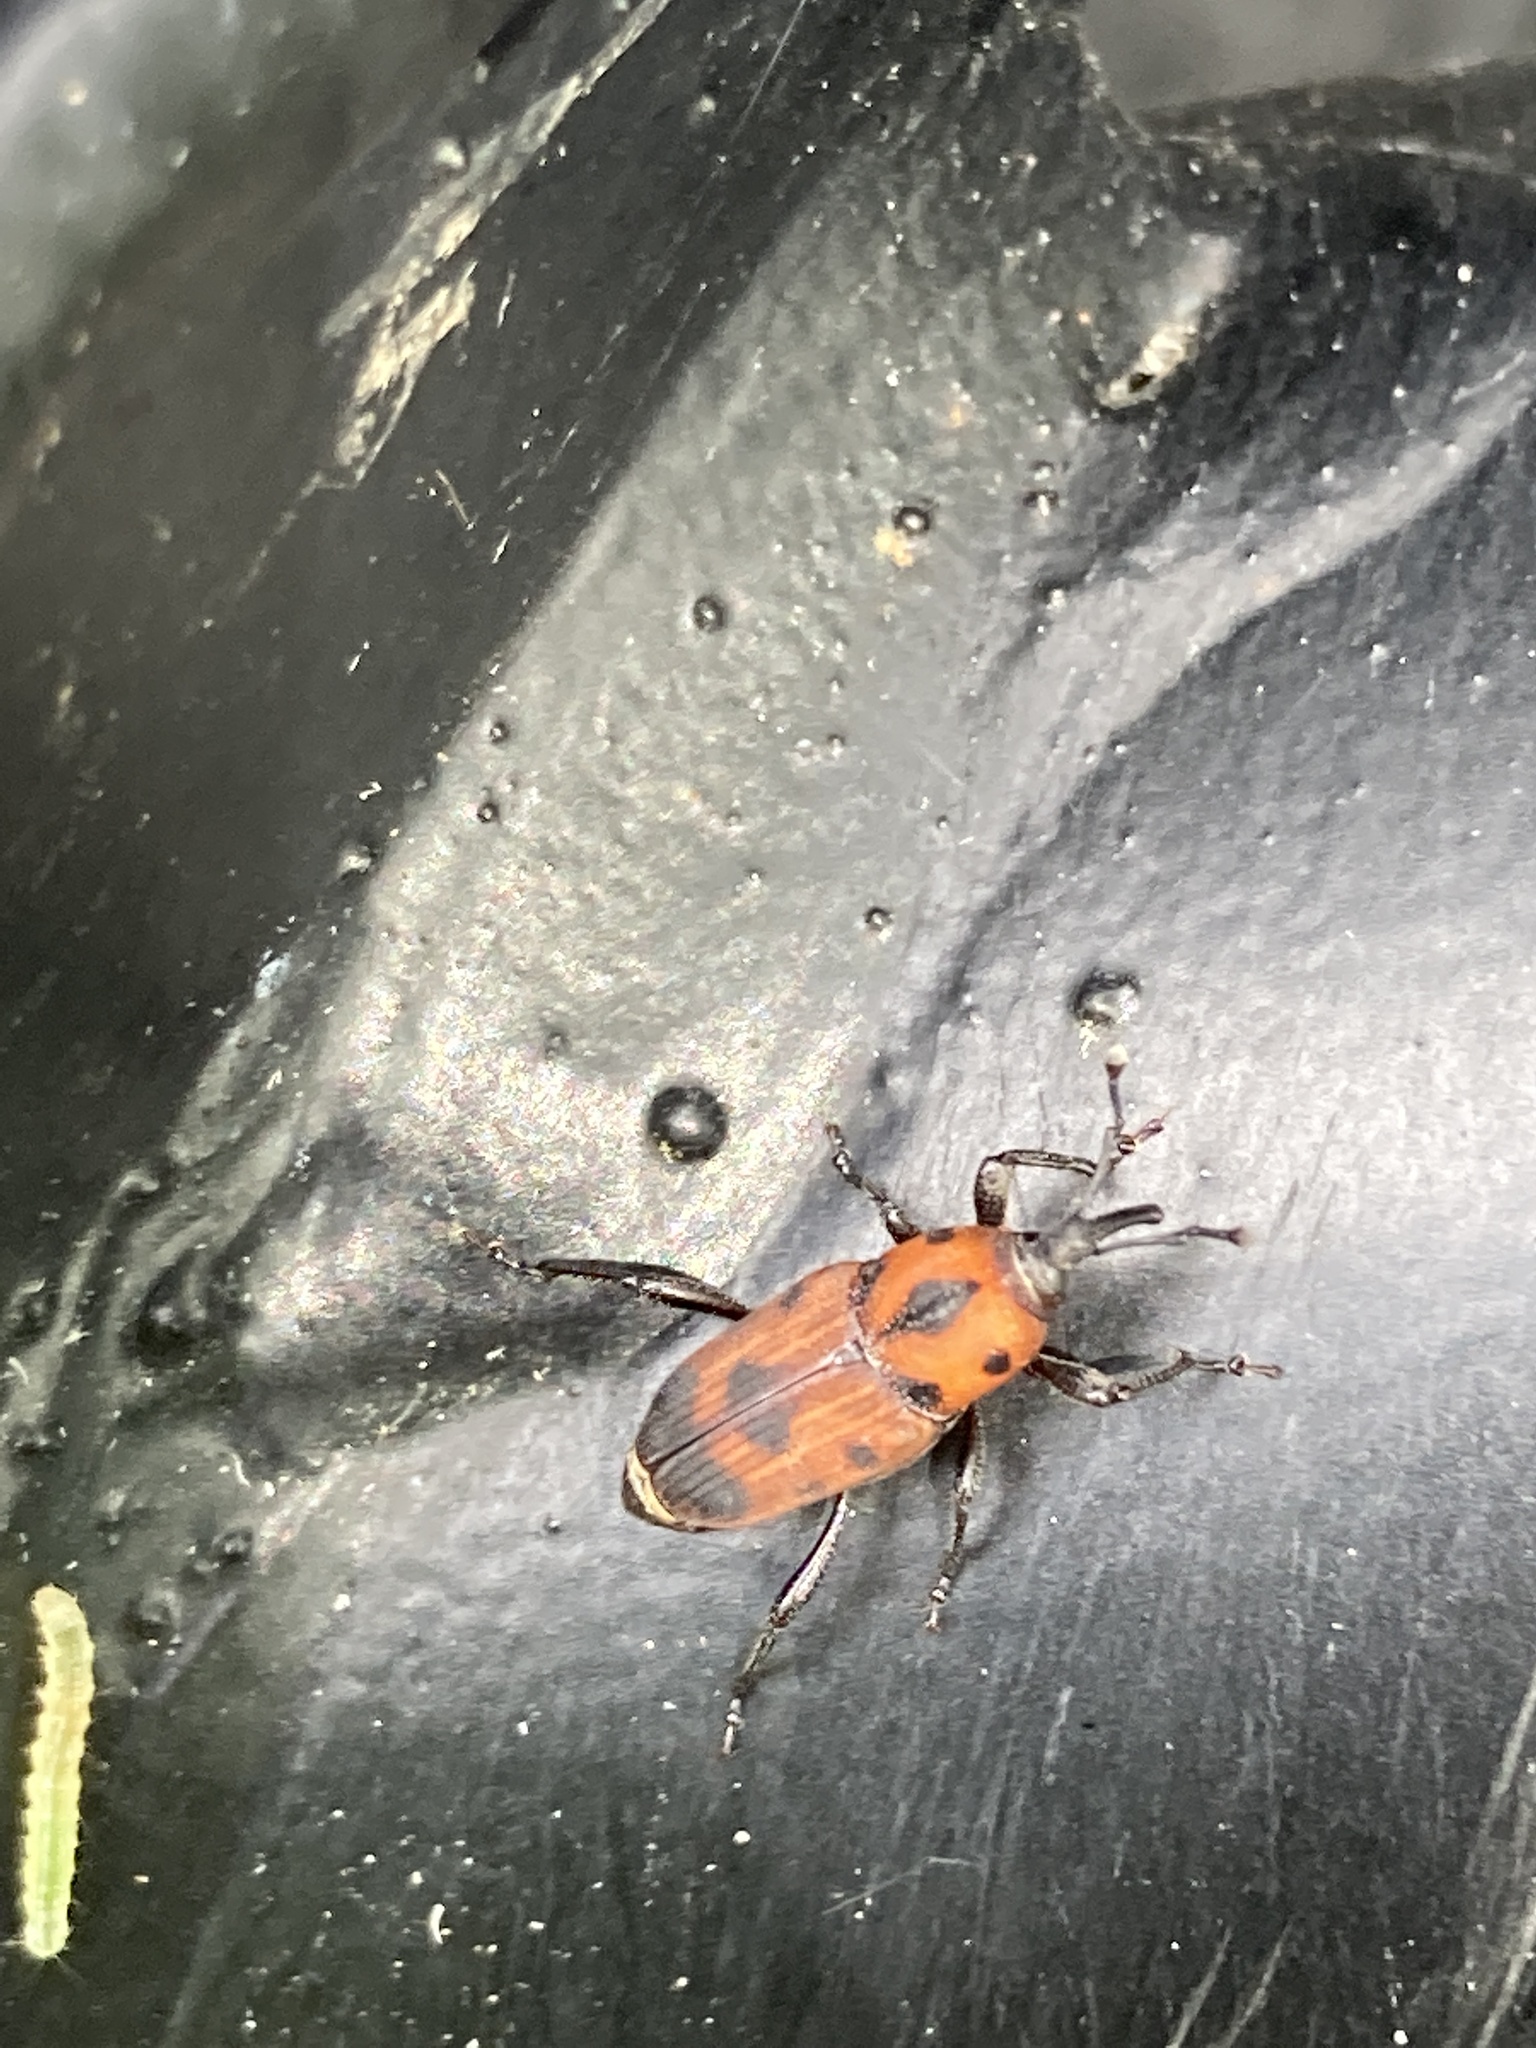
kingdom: Animalia
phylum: Arthropoda
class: Insecta
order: Coleoptera
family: Dryophthoridae
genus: Rhodobaenus
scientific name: Rhodobaenus quinquepunctatus
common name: Cocklebur weevil
